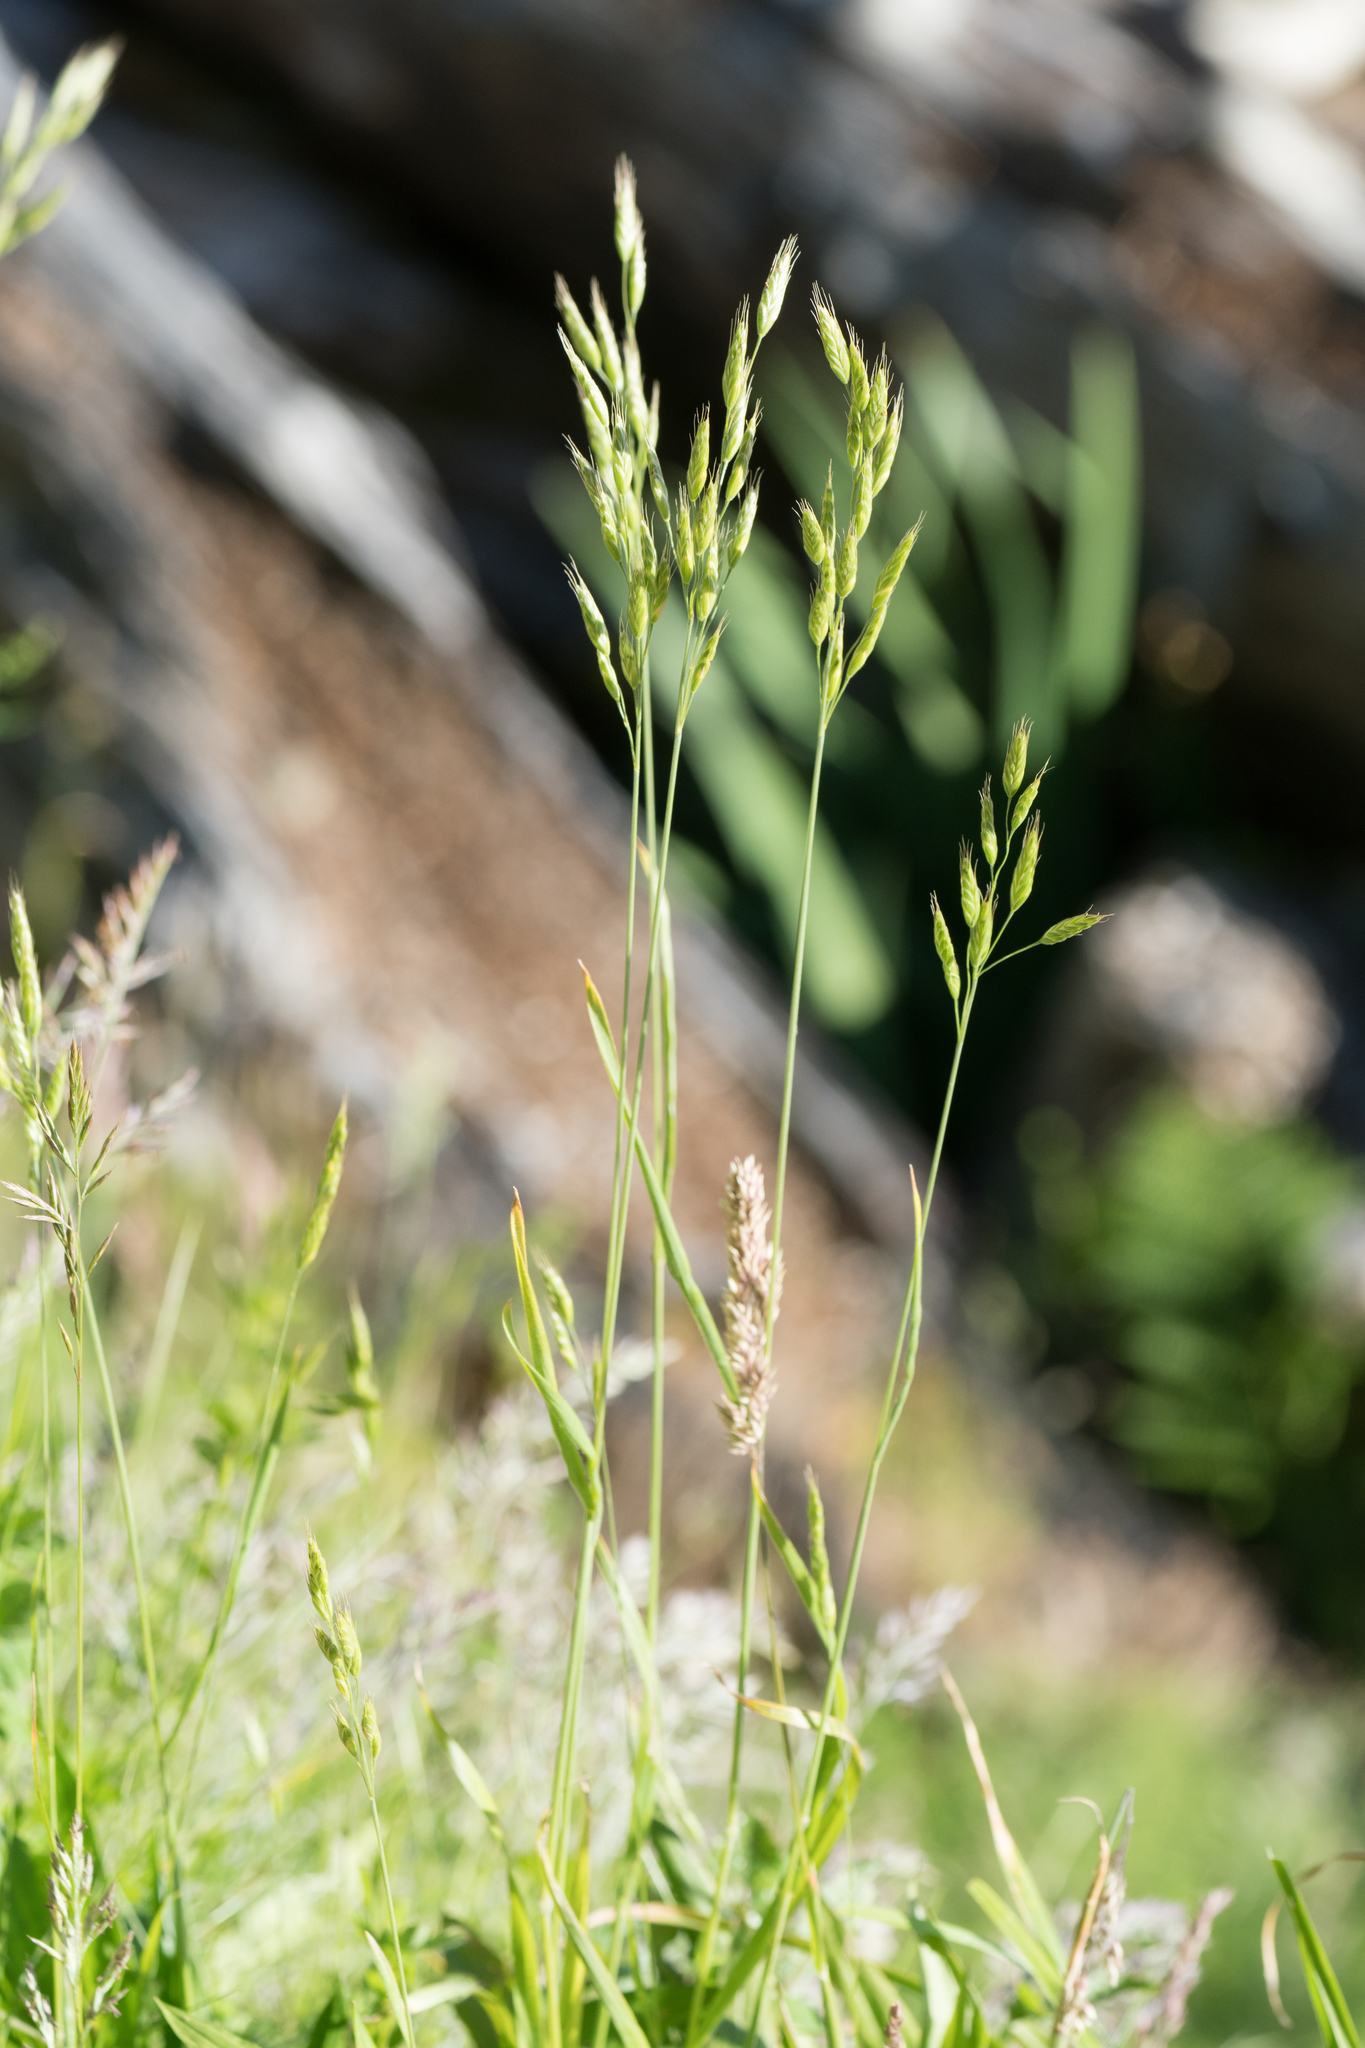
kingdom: Plantae
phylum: Tracheophyta
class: Liliopsida
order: Poales
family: Poaceae
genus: Bromus
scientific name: Bromus hordeaceus
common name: Soft brome
